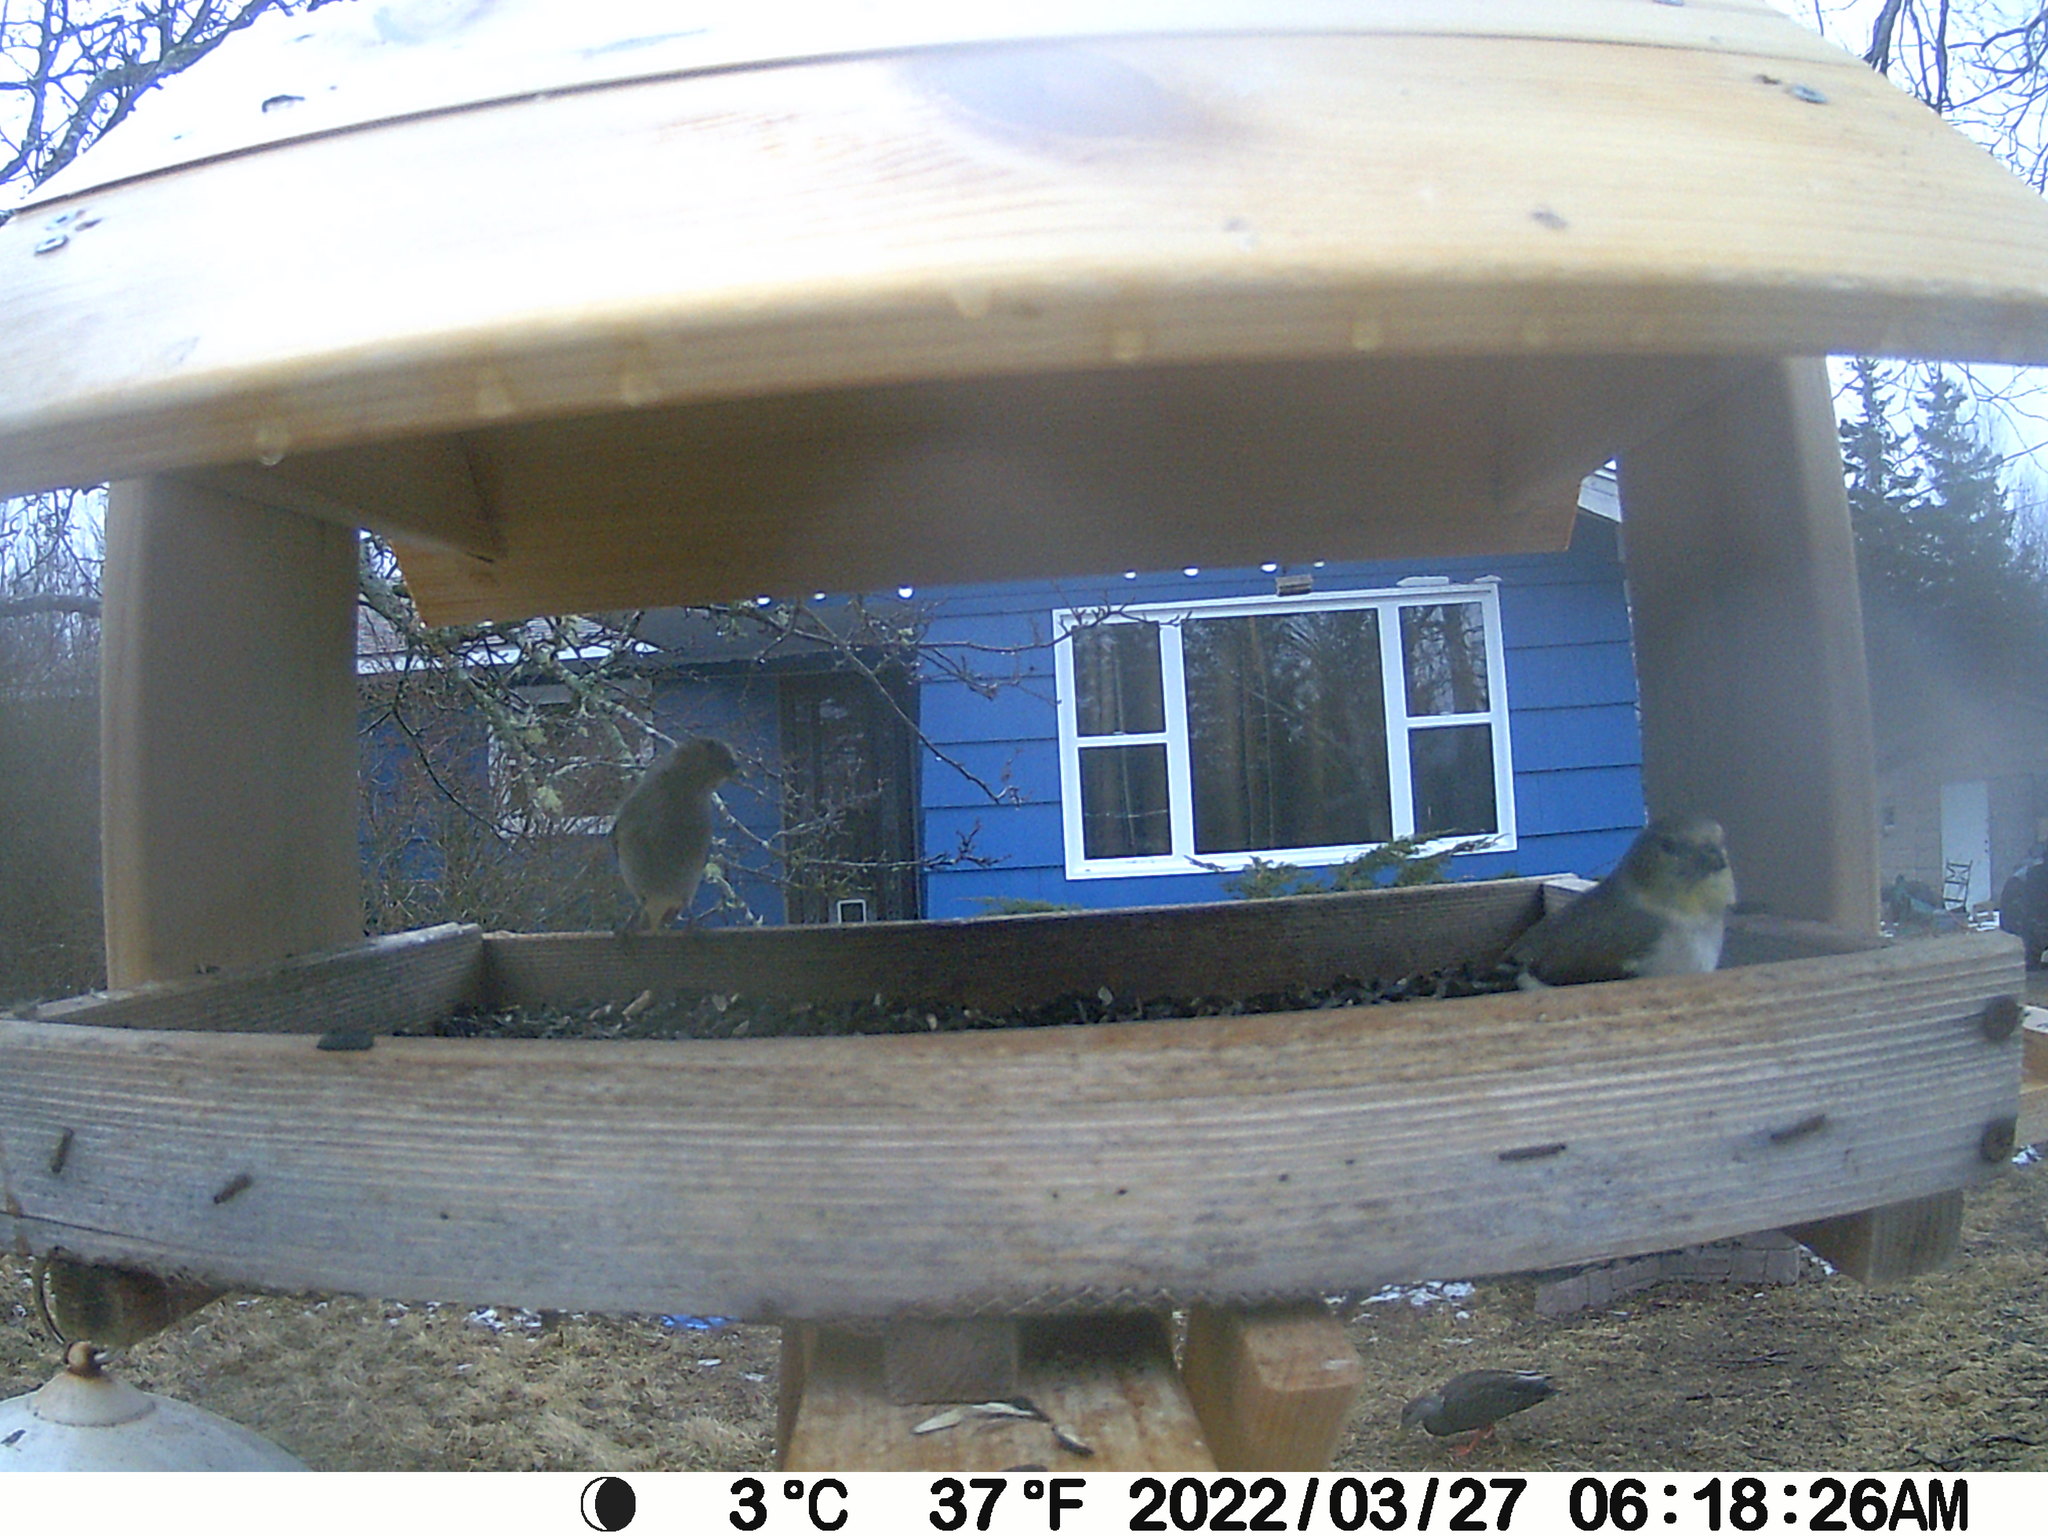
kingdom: Animalia
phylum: Chordata
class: Aves
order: Anseriformes
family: Anatidae
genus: Anas
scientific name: Anas rubripes
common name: American black duck
